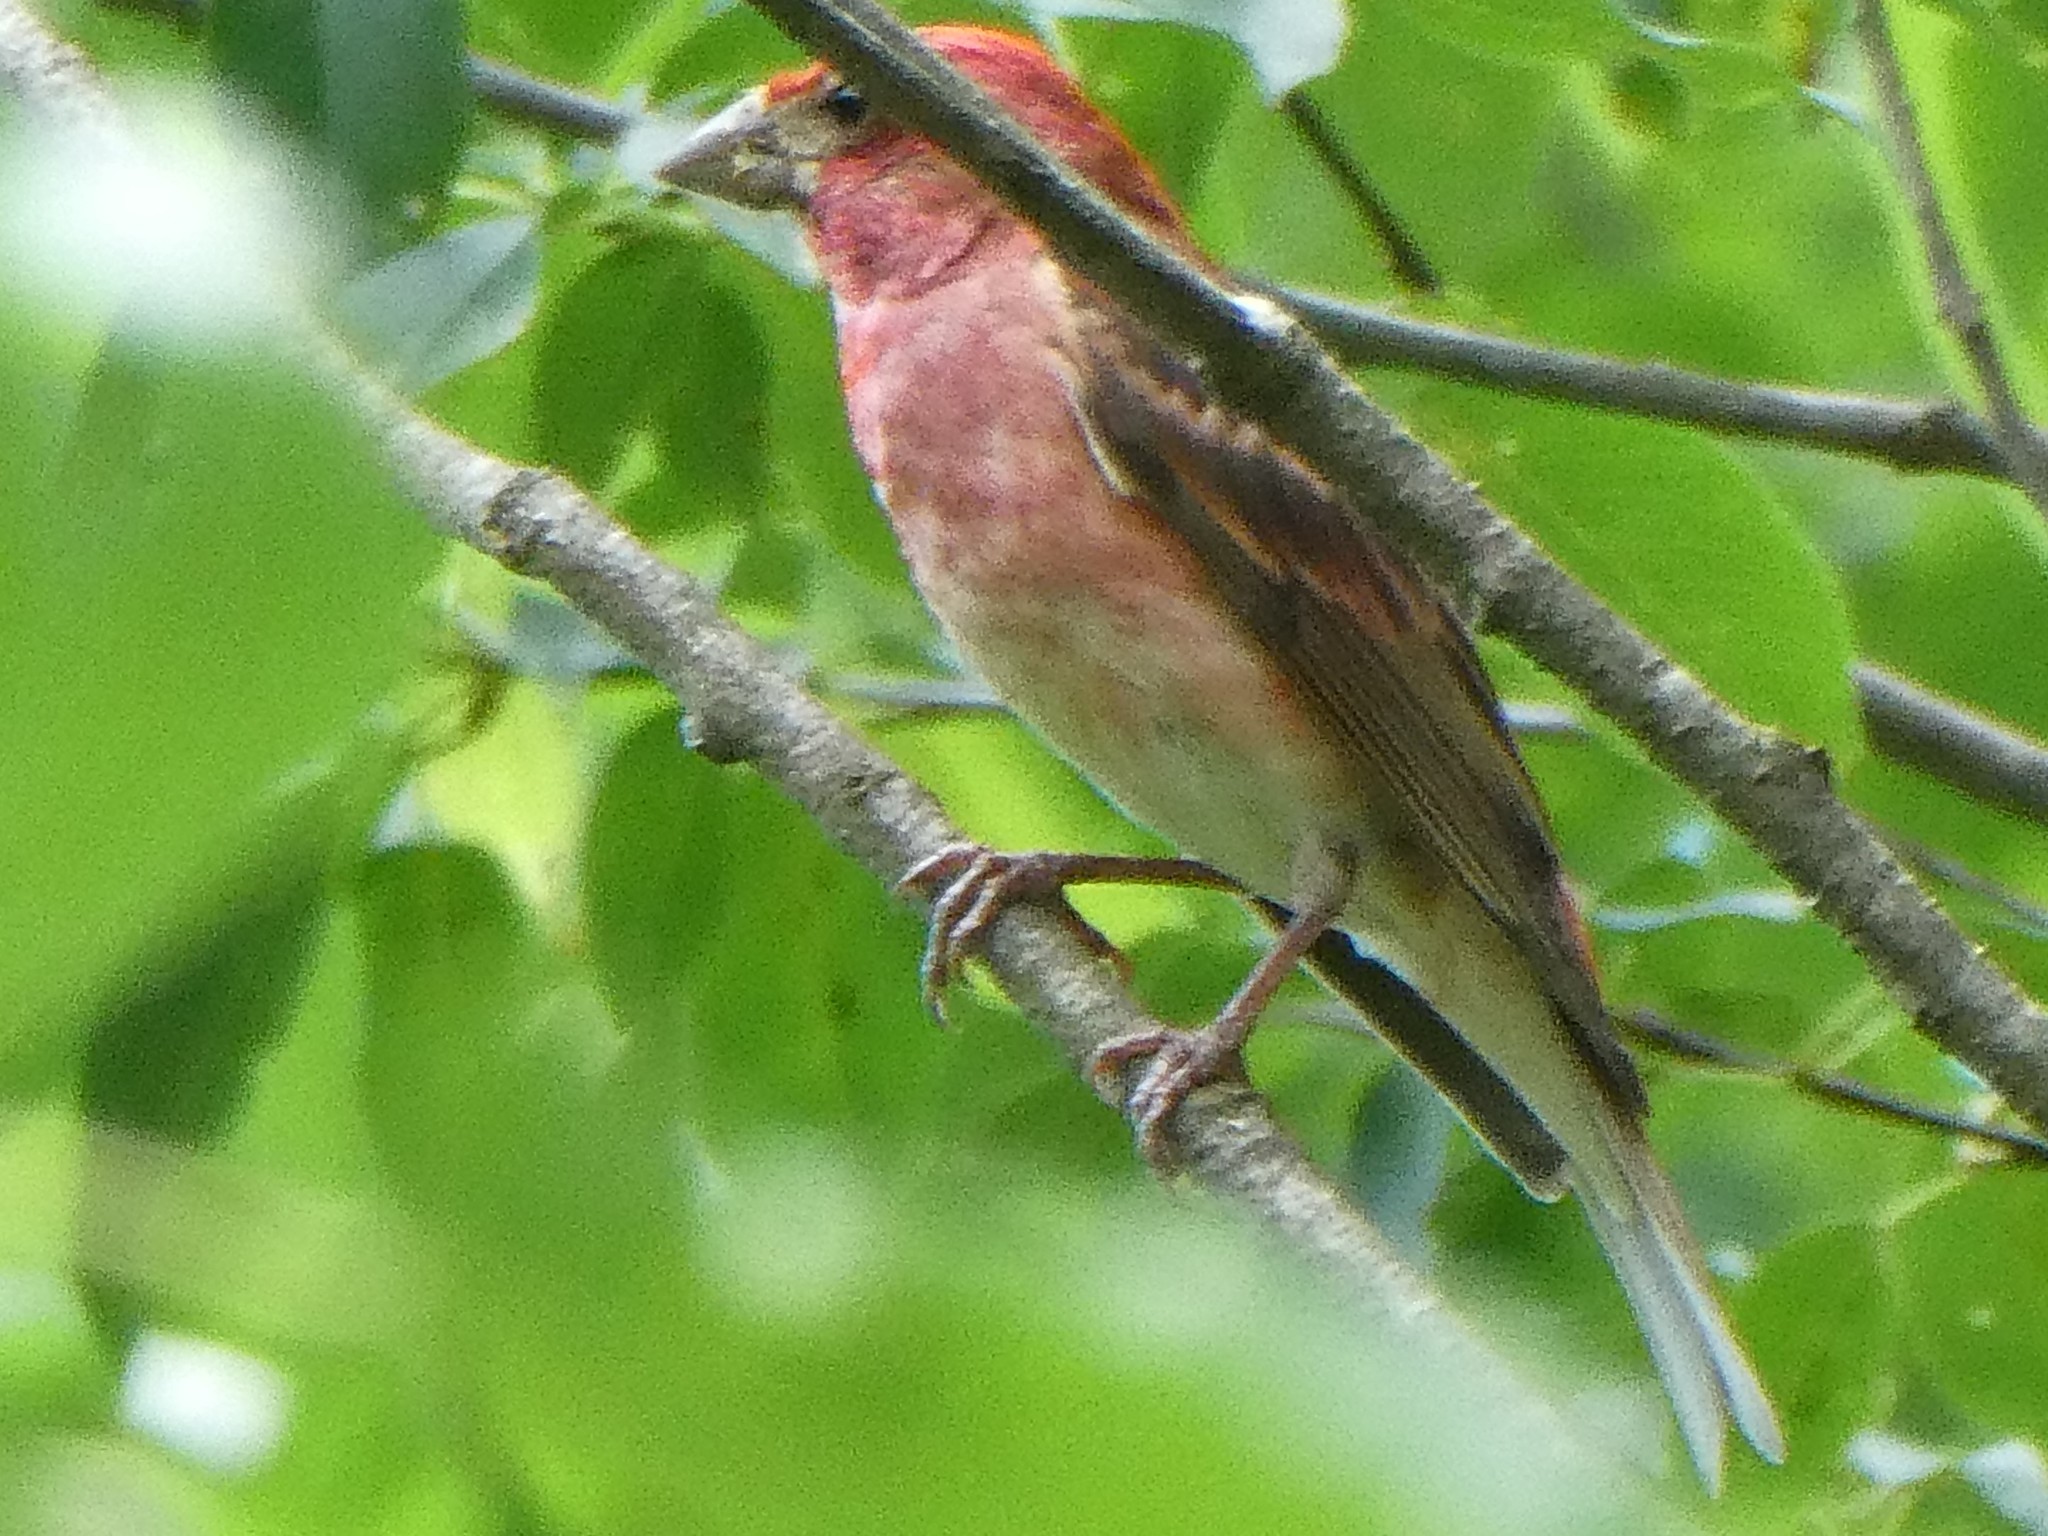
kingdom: Animalia
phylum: Chordata
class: Aves
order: Passeriformes
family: Fringillidae
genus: Haemorhous
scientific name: Haemorhous purpureus
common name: Purple finch
